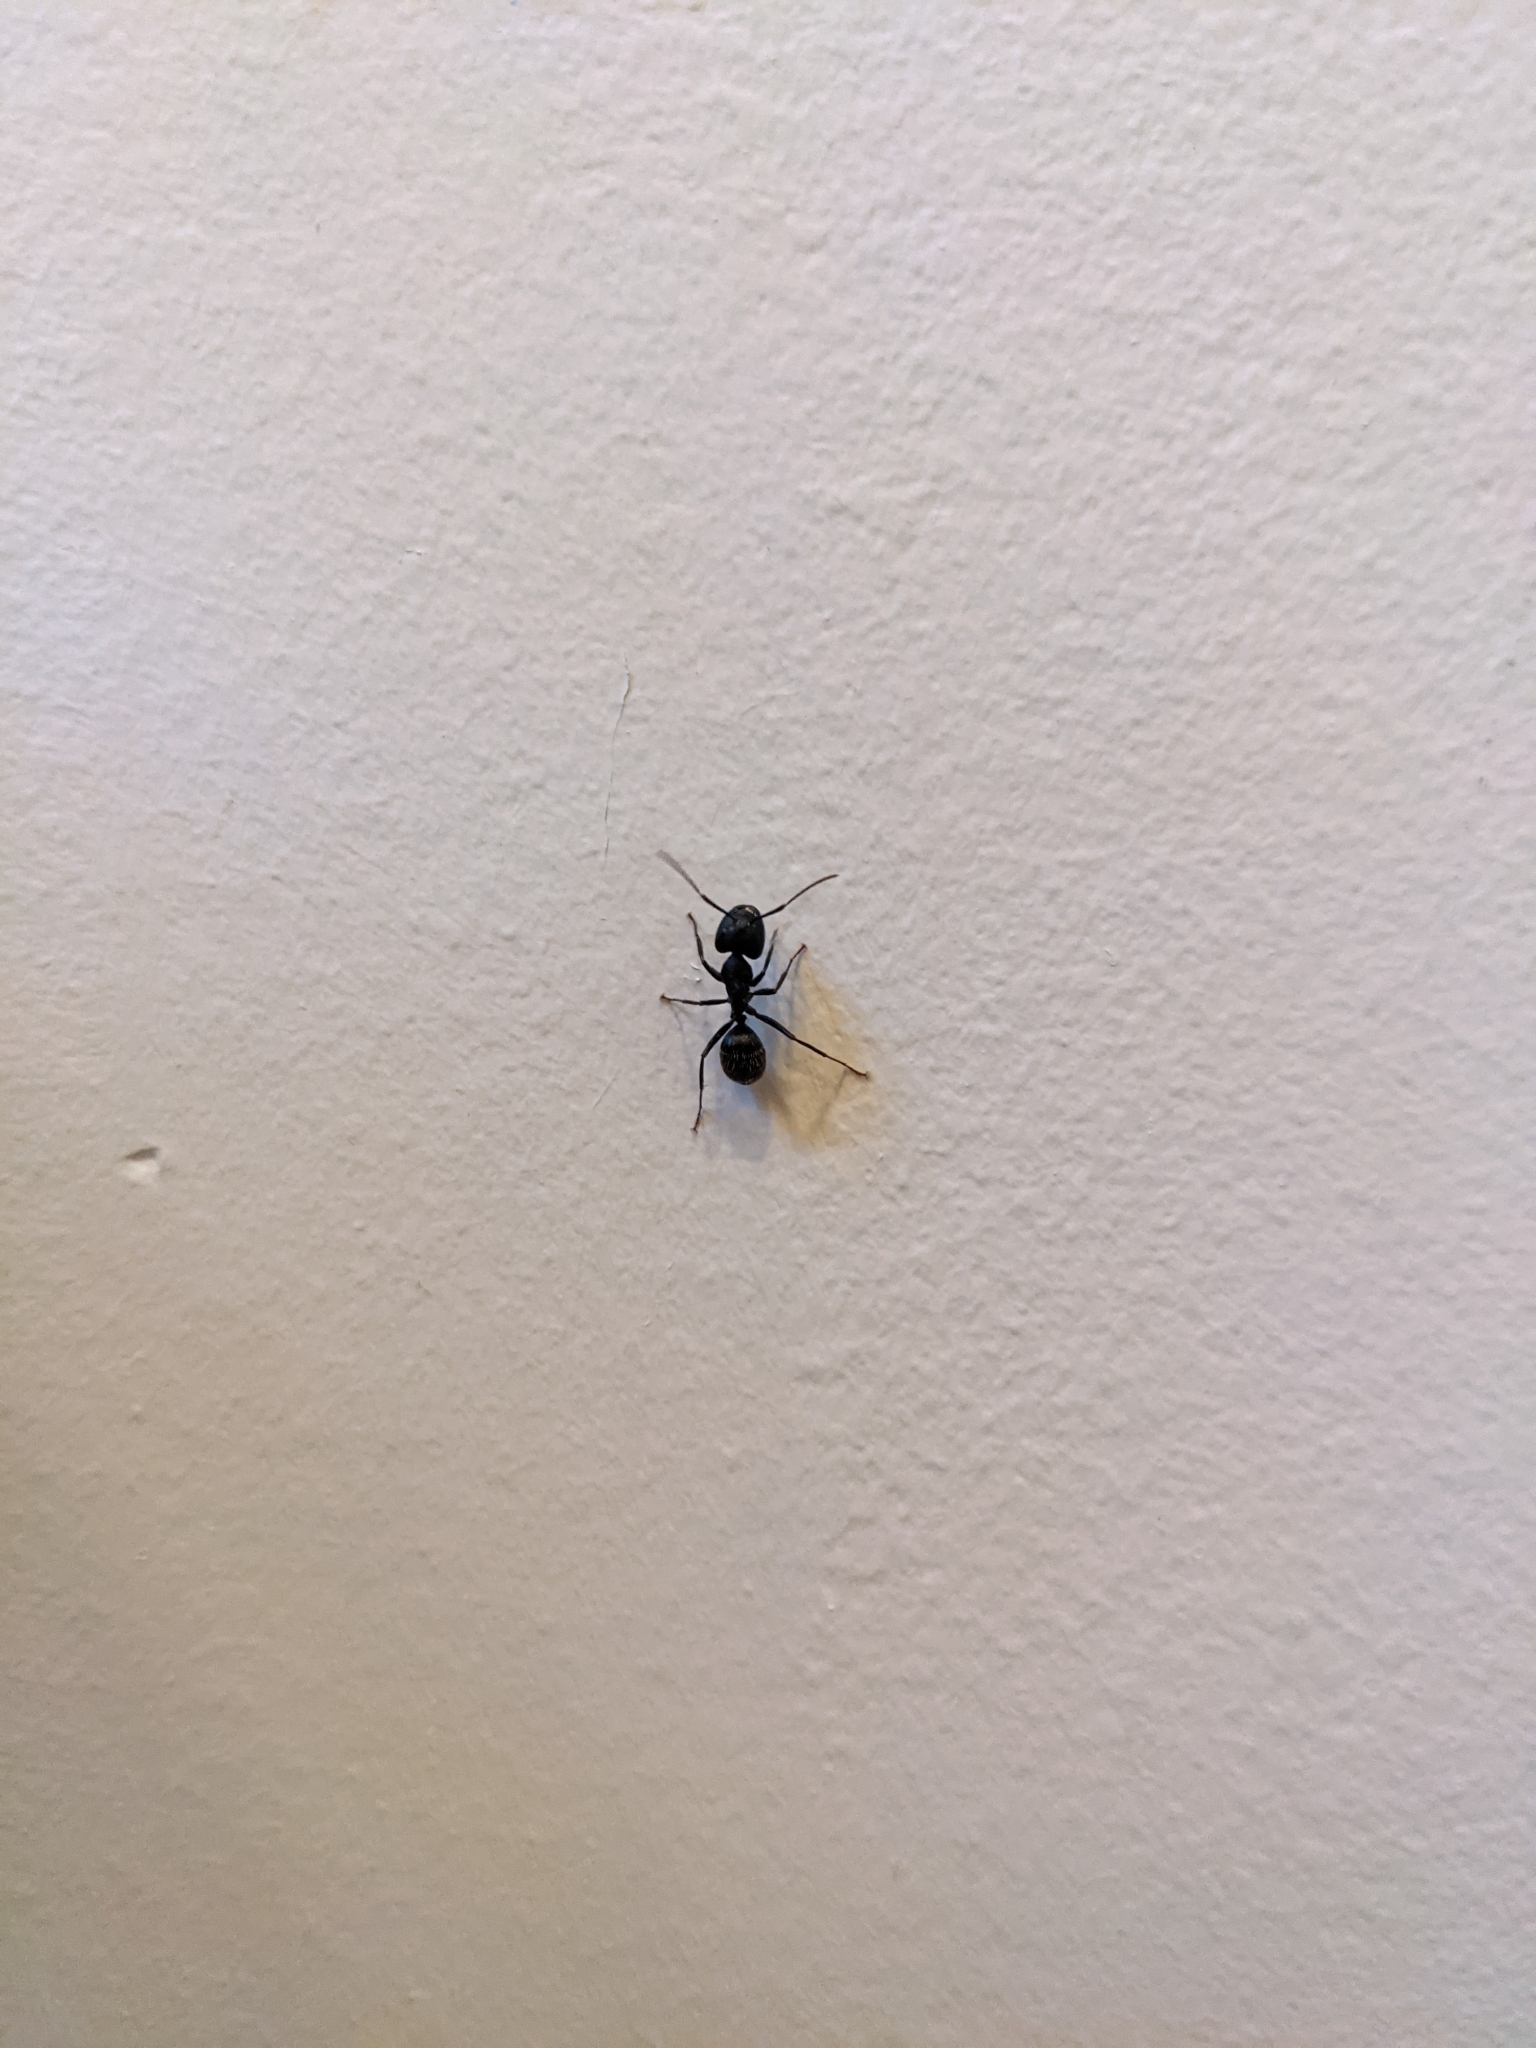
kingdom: Animalia
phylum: Arthropoda
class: Insecta
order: Hymenoptera
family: Formicidae
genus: Camponotus
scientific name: Camponotus pennsylvanicus
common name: Black carpenter ant
